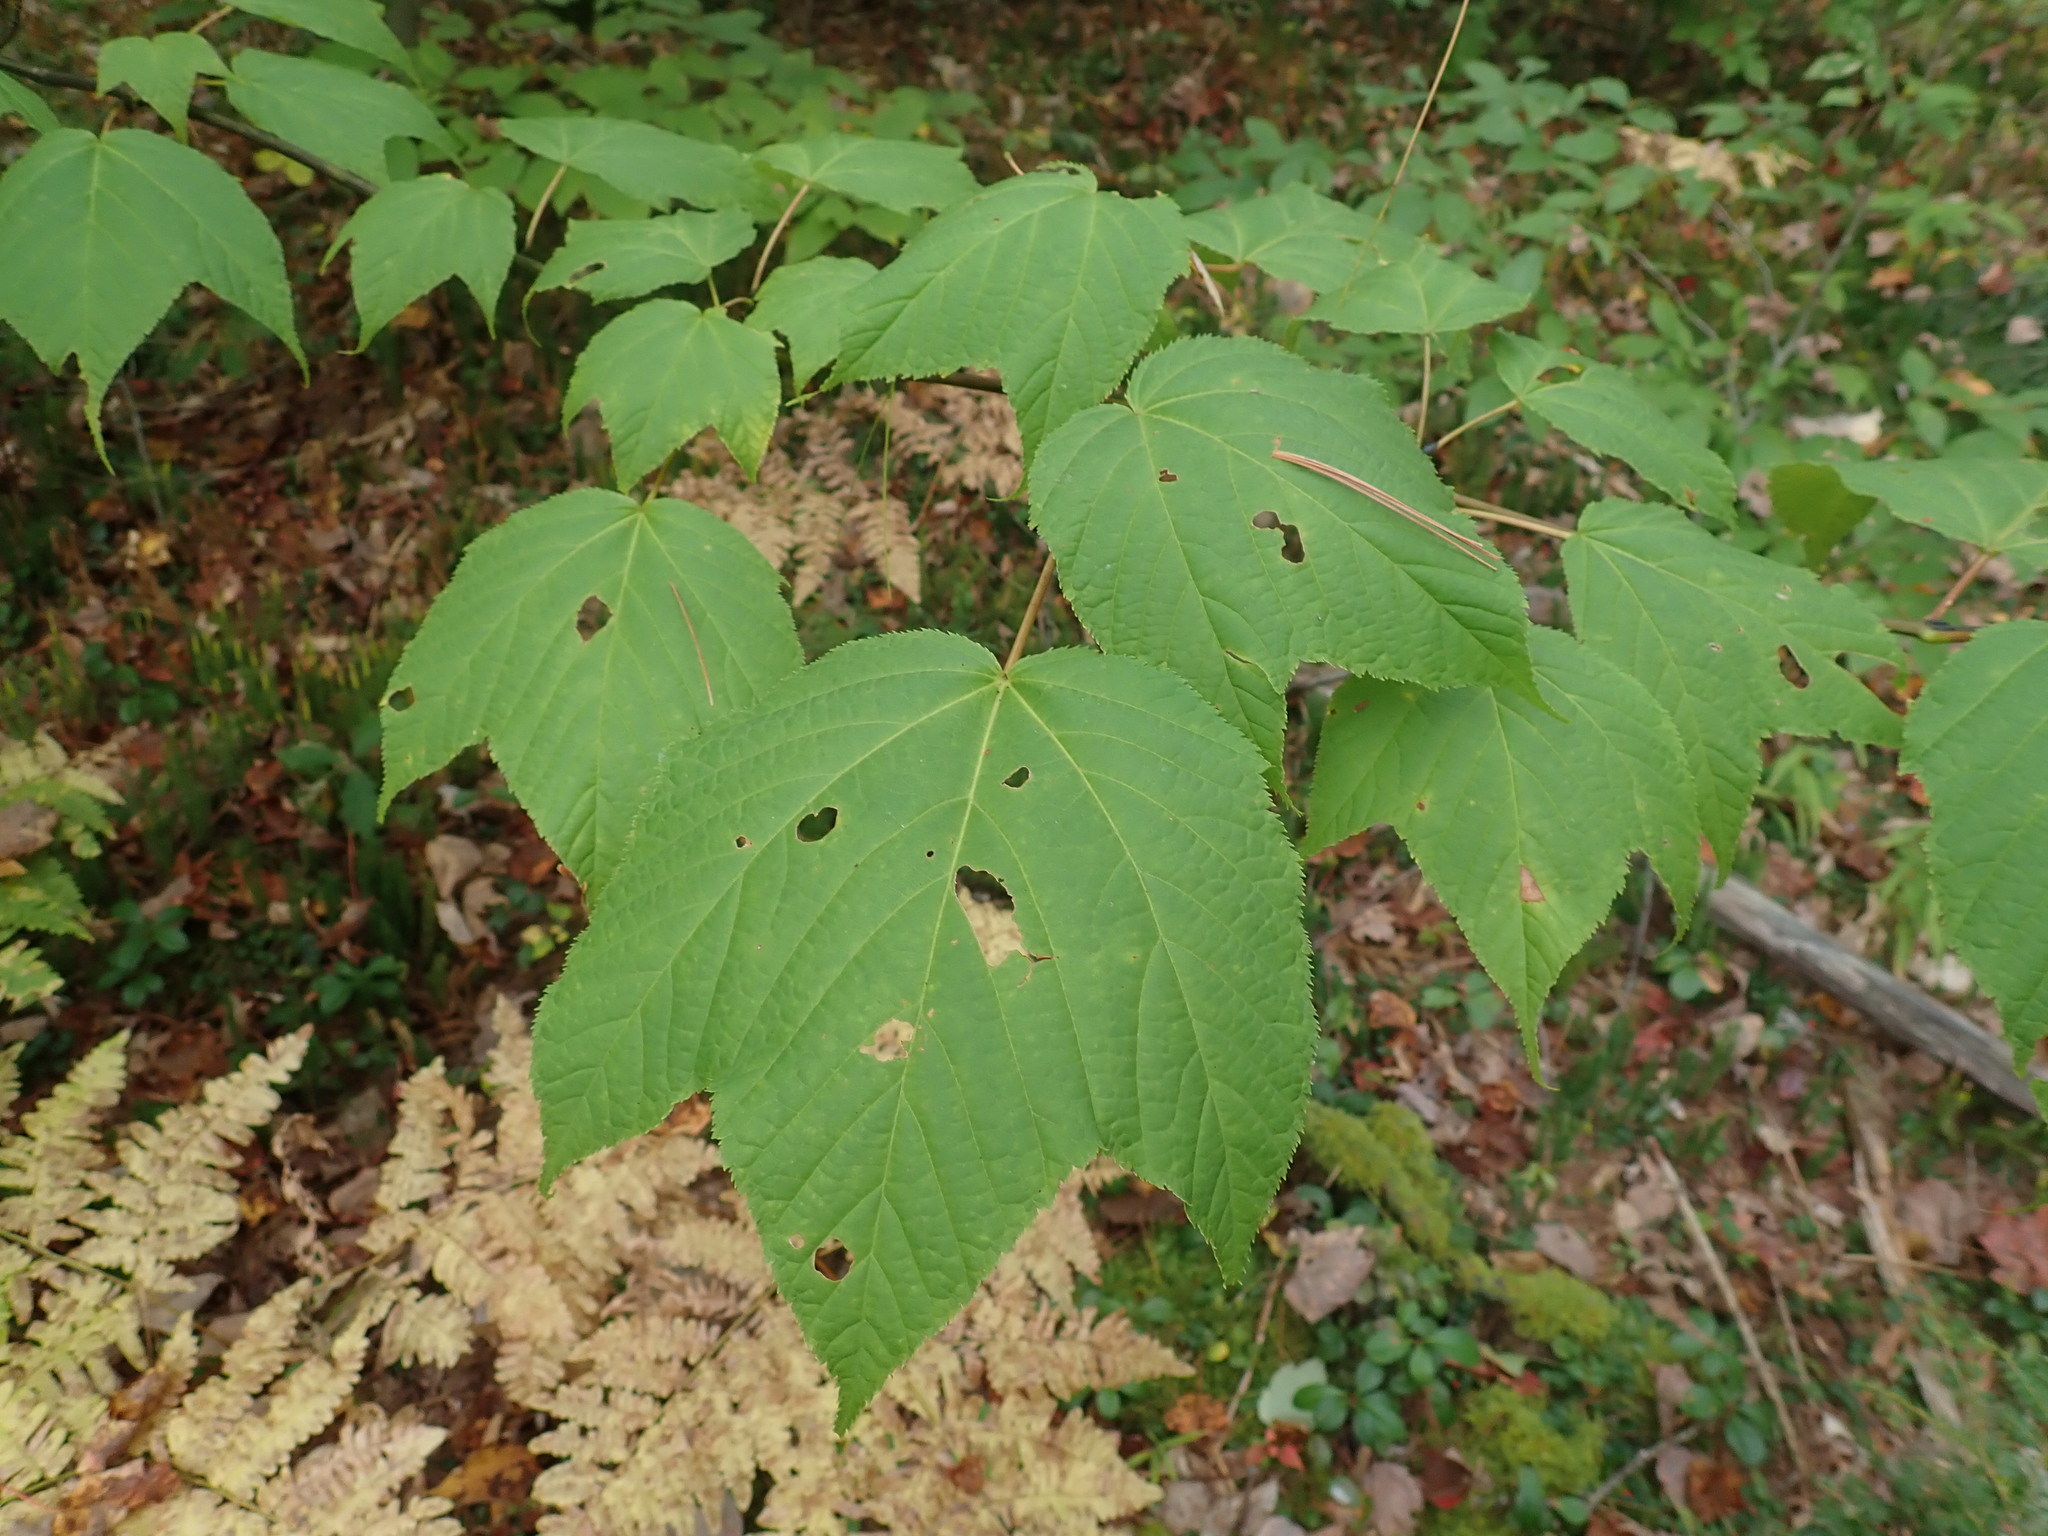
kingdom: Plantae
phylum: Tracheophyta
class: Magnoliopsida
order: Sapindales
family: Sapindaceae
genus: Acer
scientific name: Acer pensylvanicum
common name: Moosewood
